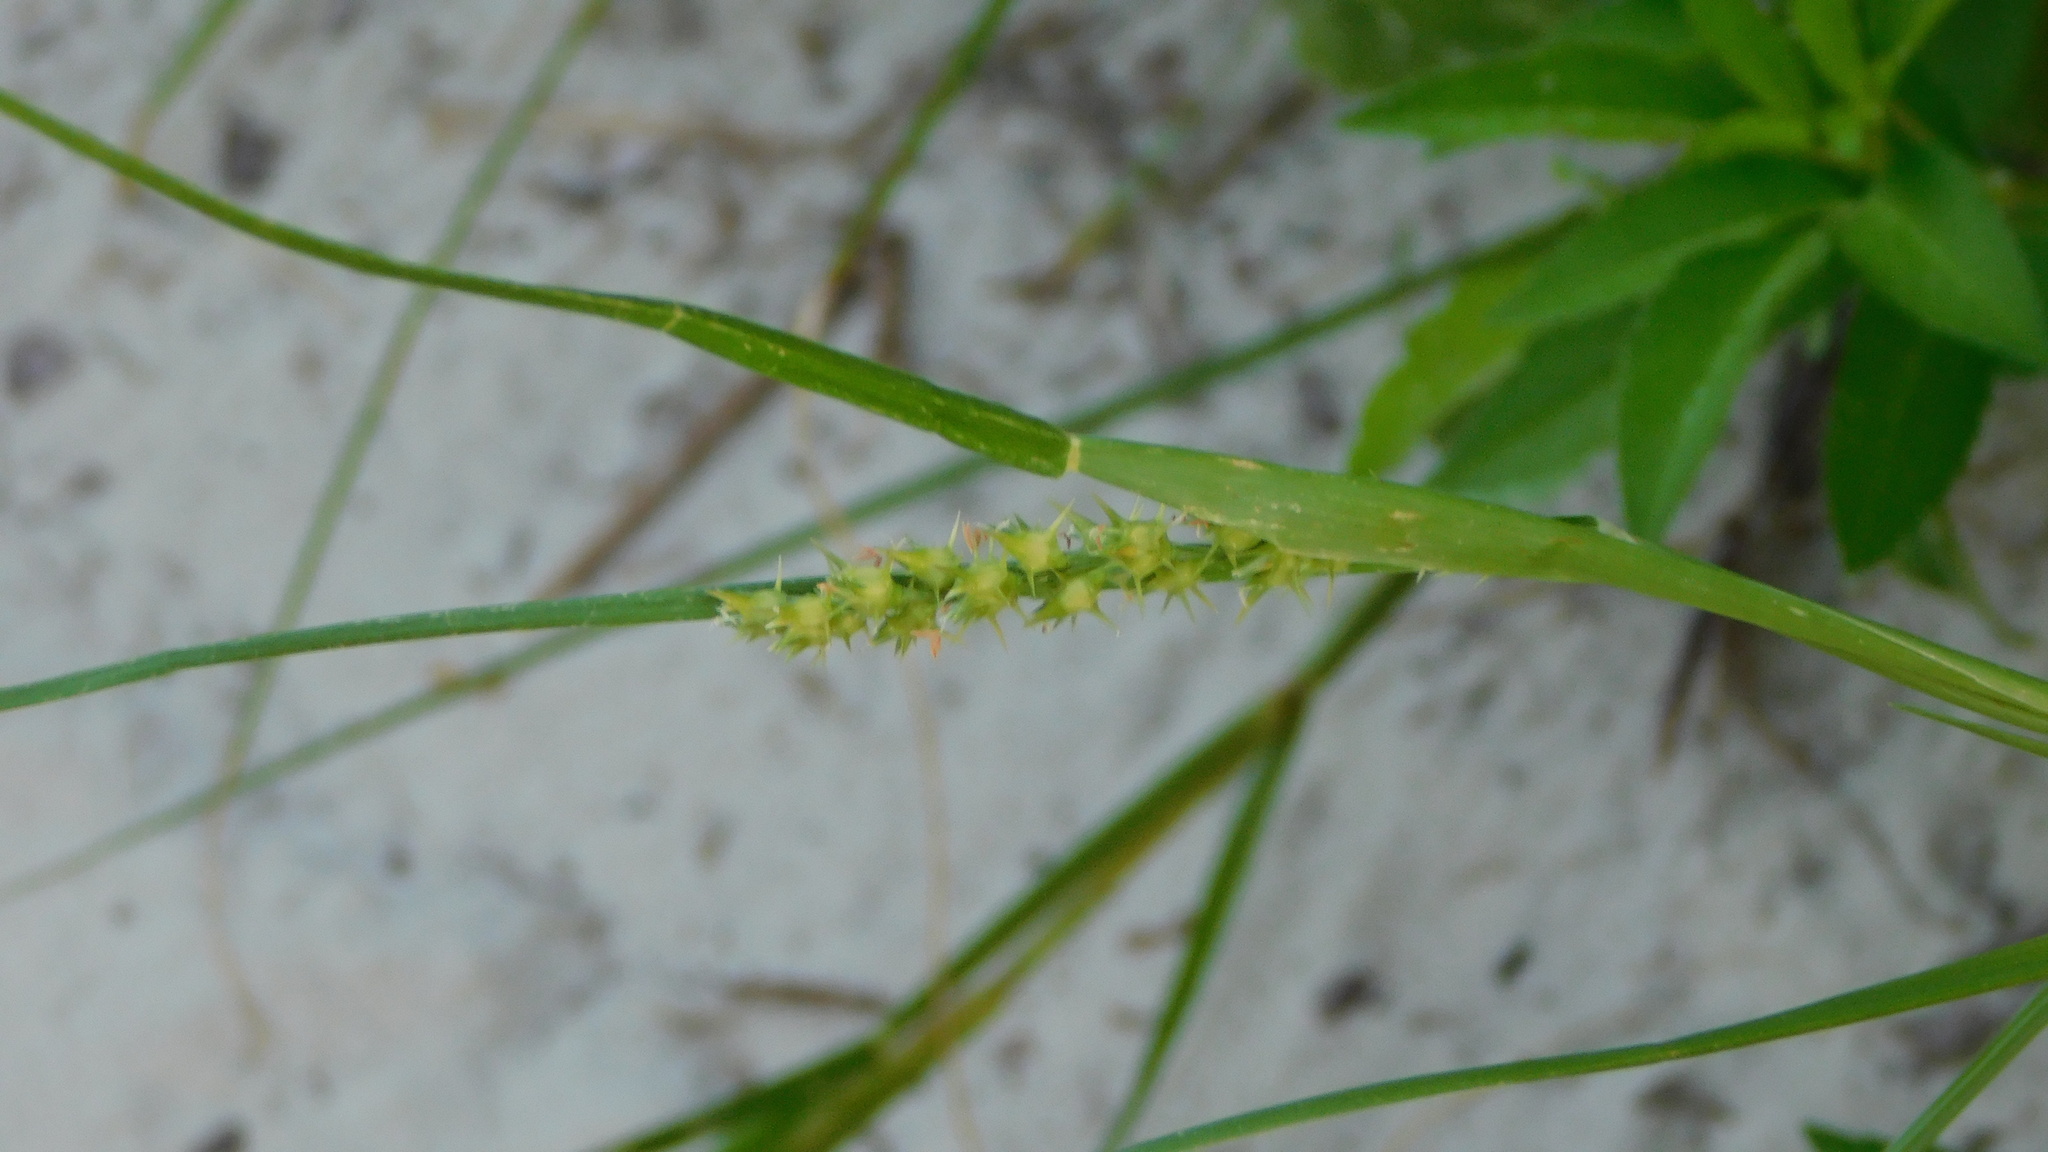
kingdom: Plantae
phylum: Tracheophyta
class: Liliopsida
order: Poales
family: Poaceae
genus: Cenchrus
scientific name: Cenchrus spinifex
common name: Coast sandbur
